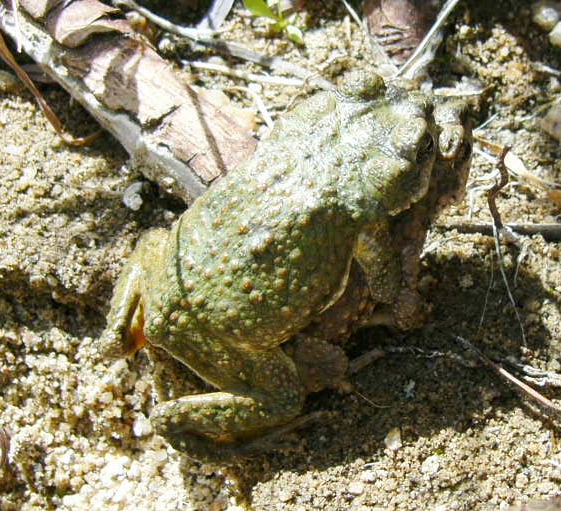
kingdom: Animalia
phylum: Chordata
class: Amphibia
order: Anura
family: Bufonidae
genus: Anaxyrus
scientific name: Anaxyrus punctatus
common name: Red-spotted toad
